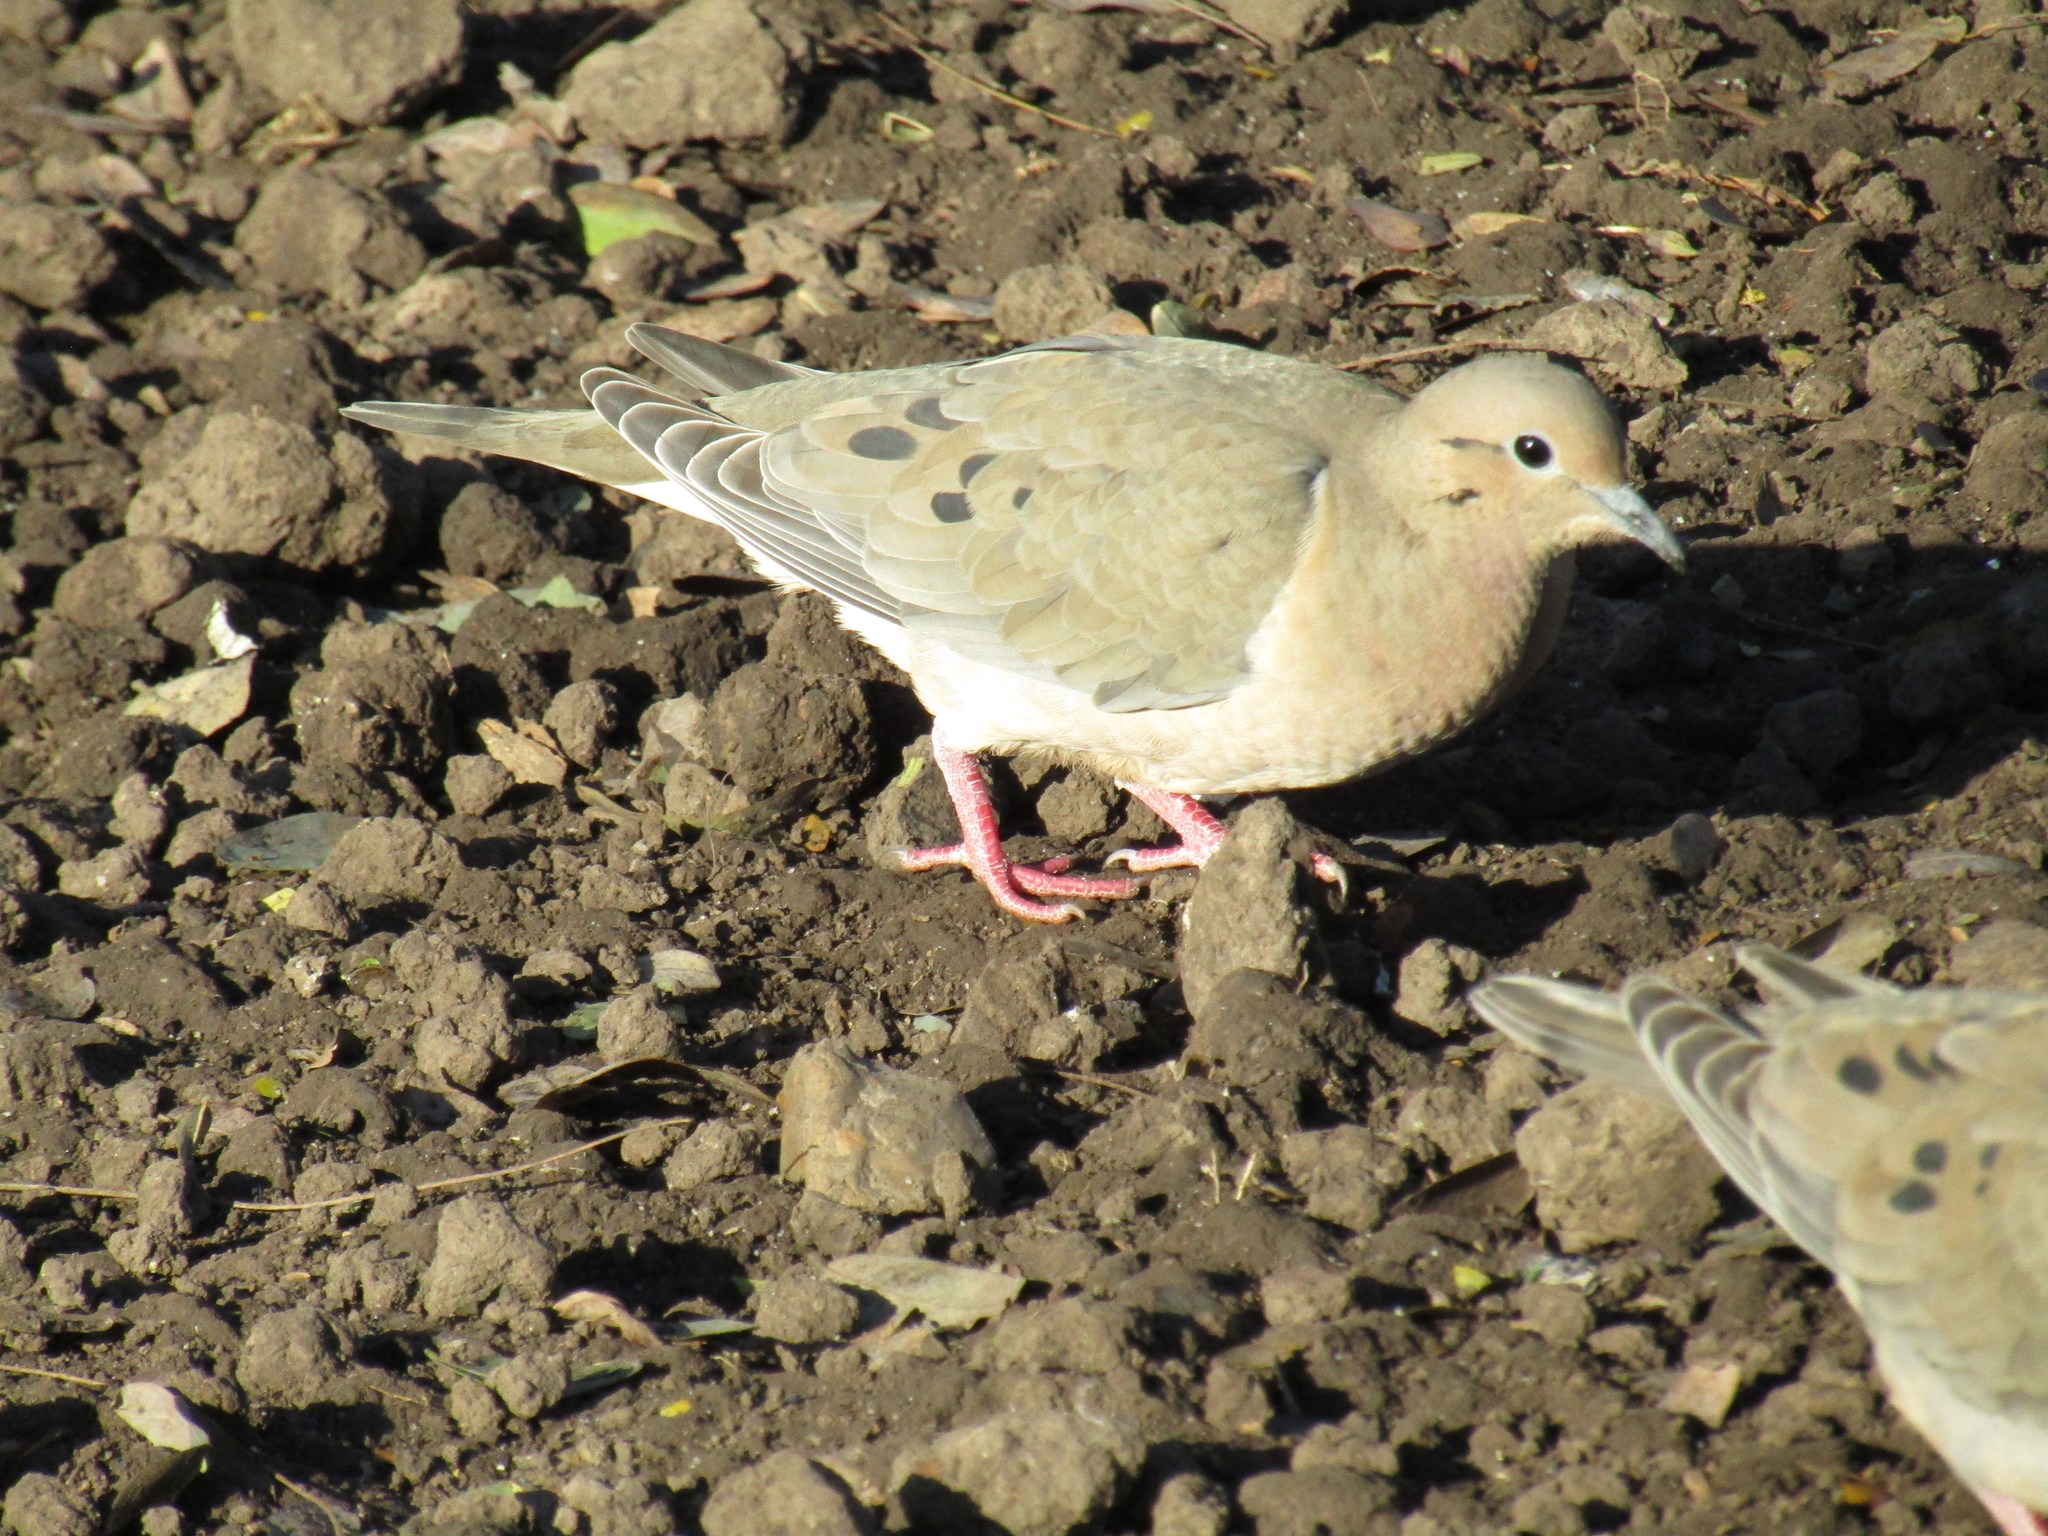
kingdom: Animalia
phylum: Chordata
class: Aves
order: Columbiformes
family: Columbidae
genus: Zenaida
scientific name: Zenaida auriculata
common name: Eared dove
